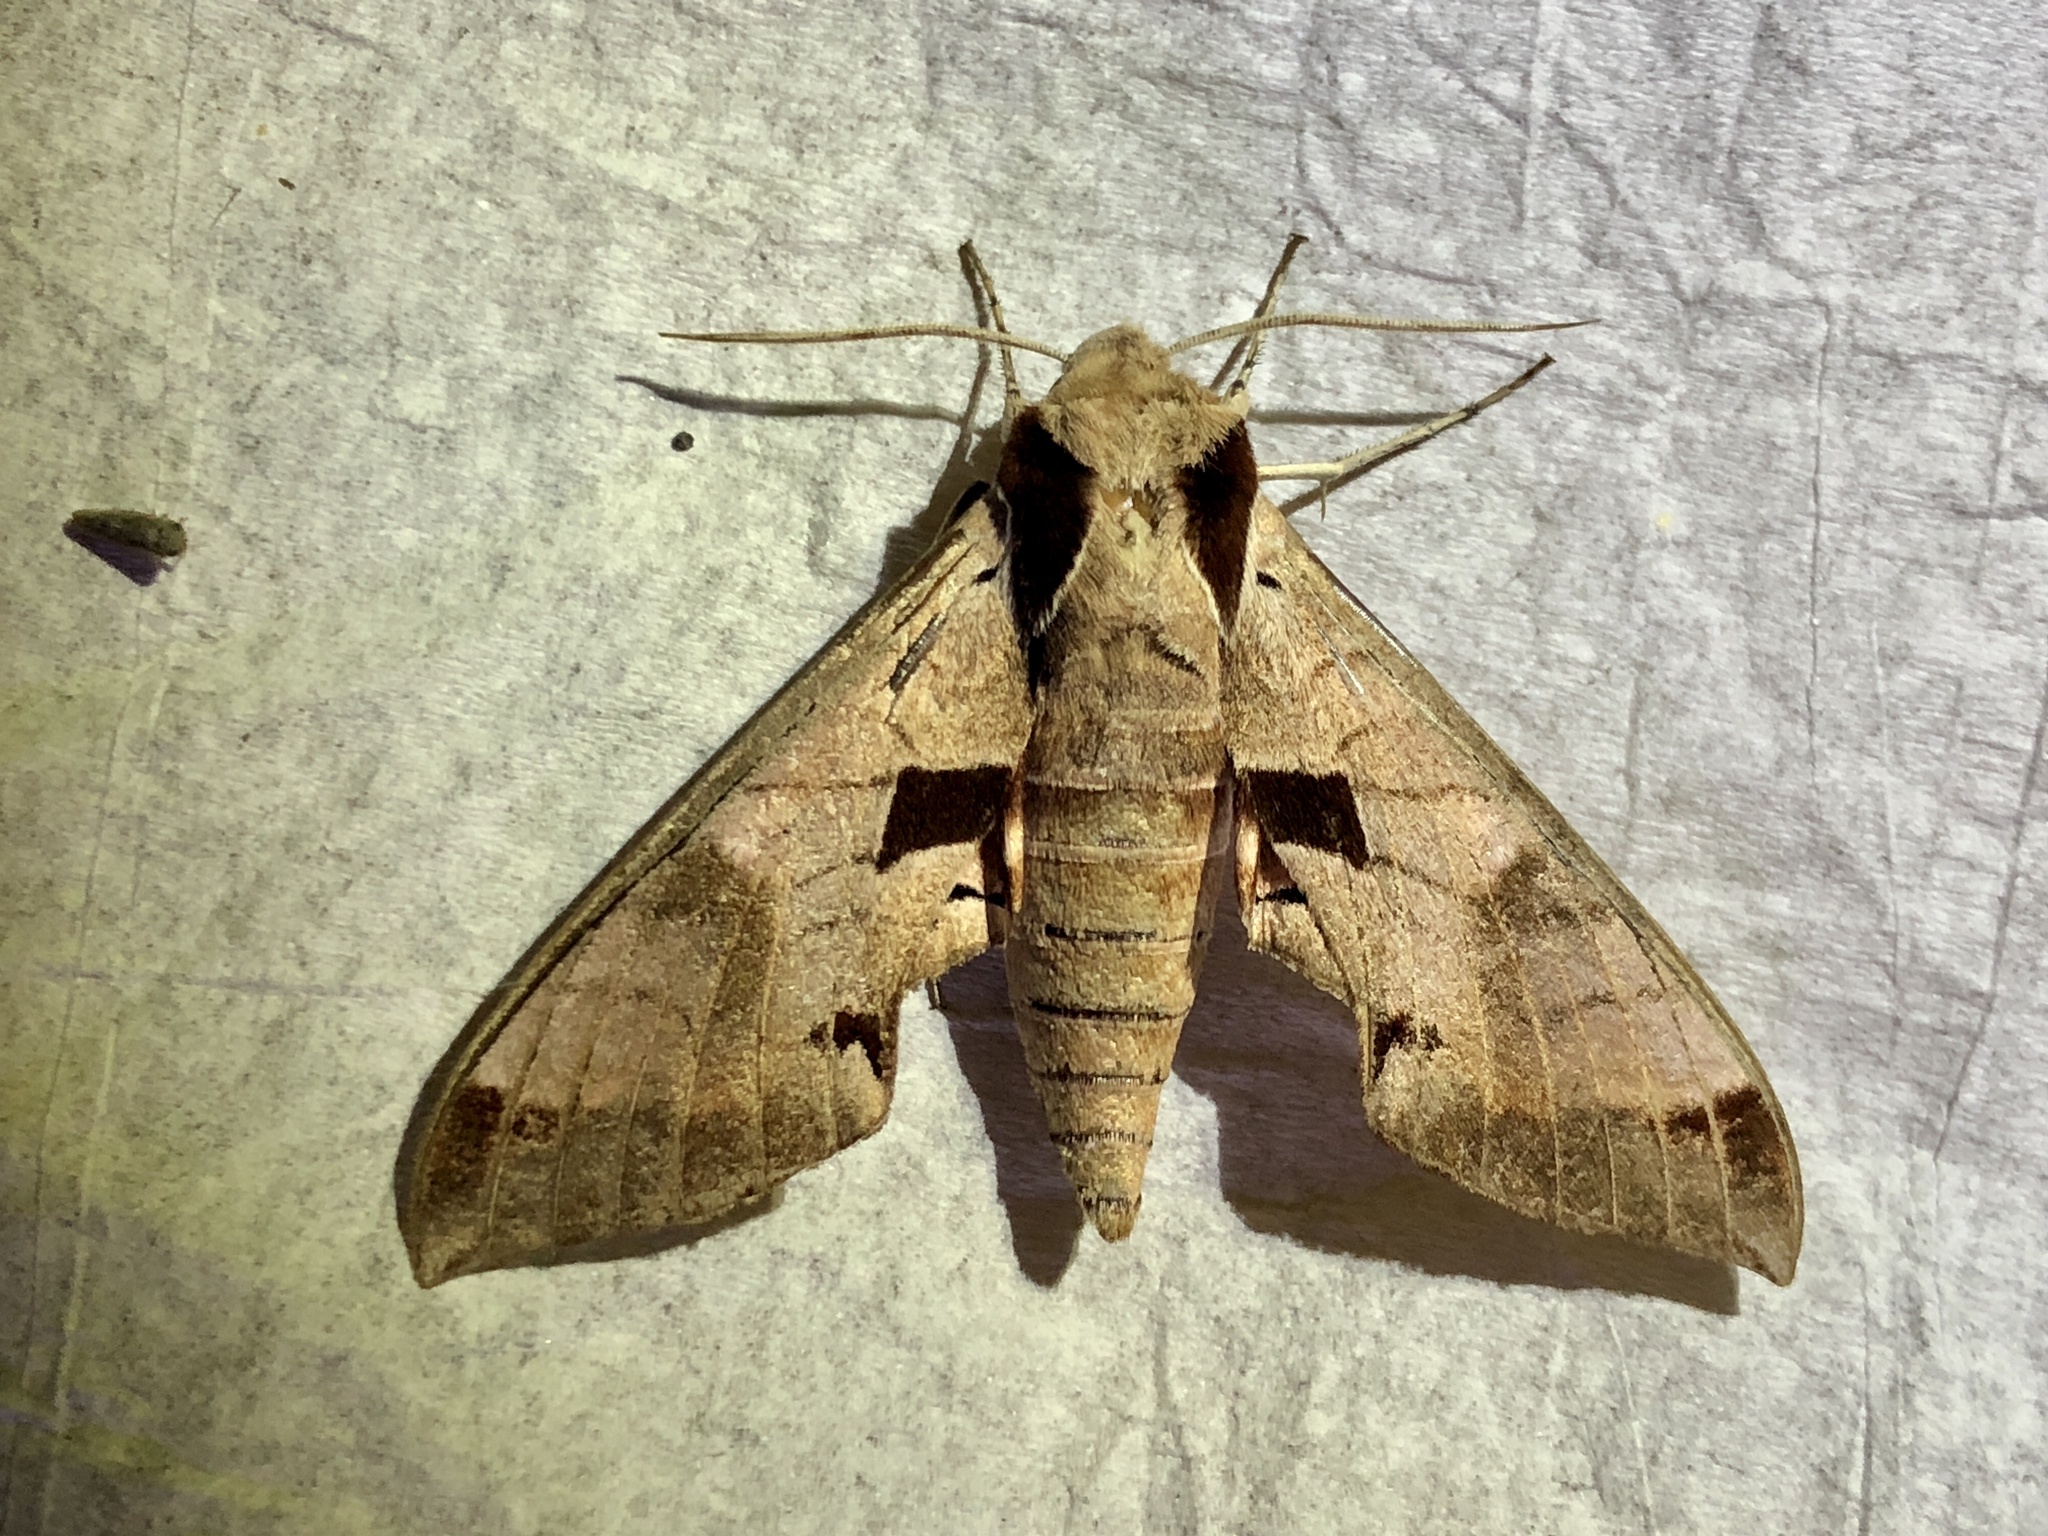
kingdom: Animalia
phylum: Arthropoda
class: Insecta
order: Lepidoptera
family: Sphingidae
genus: Eumorpha
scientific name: Eumorpha achemon
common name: Achemon sphinx
